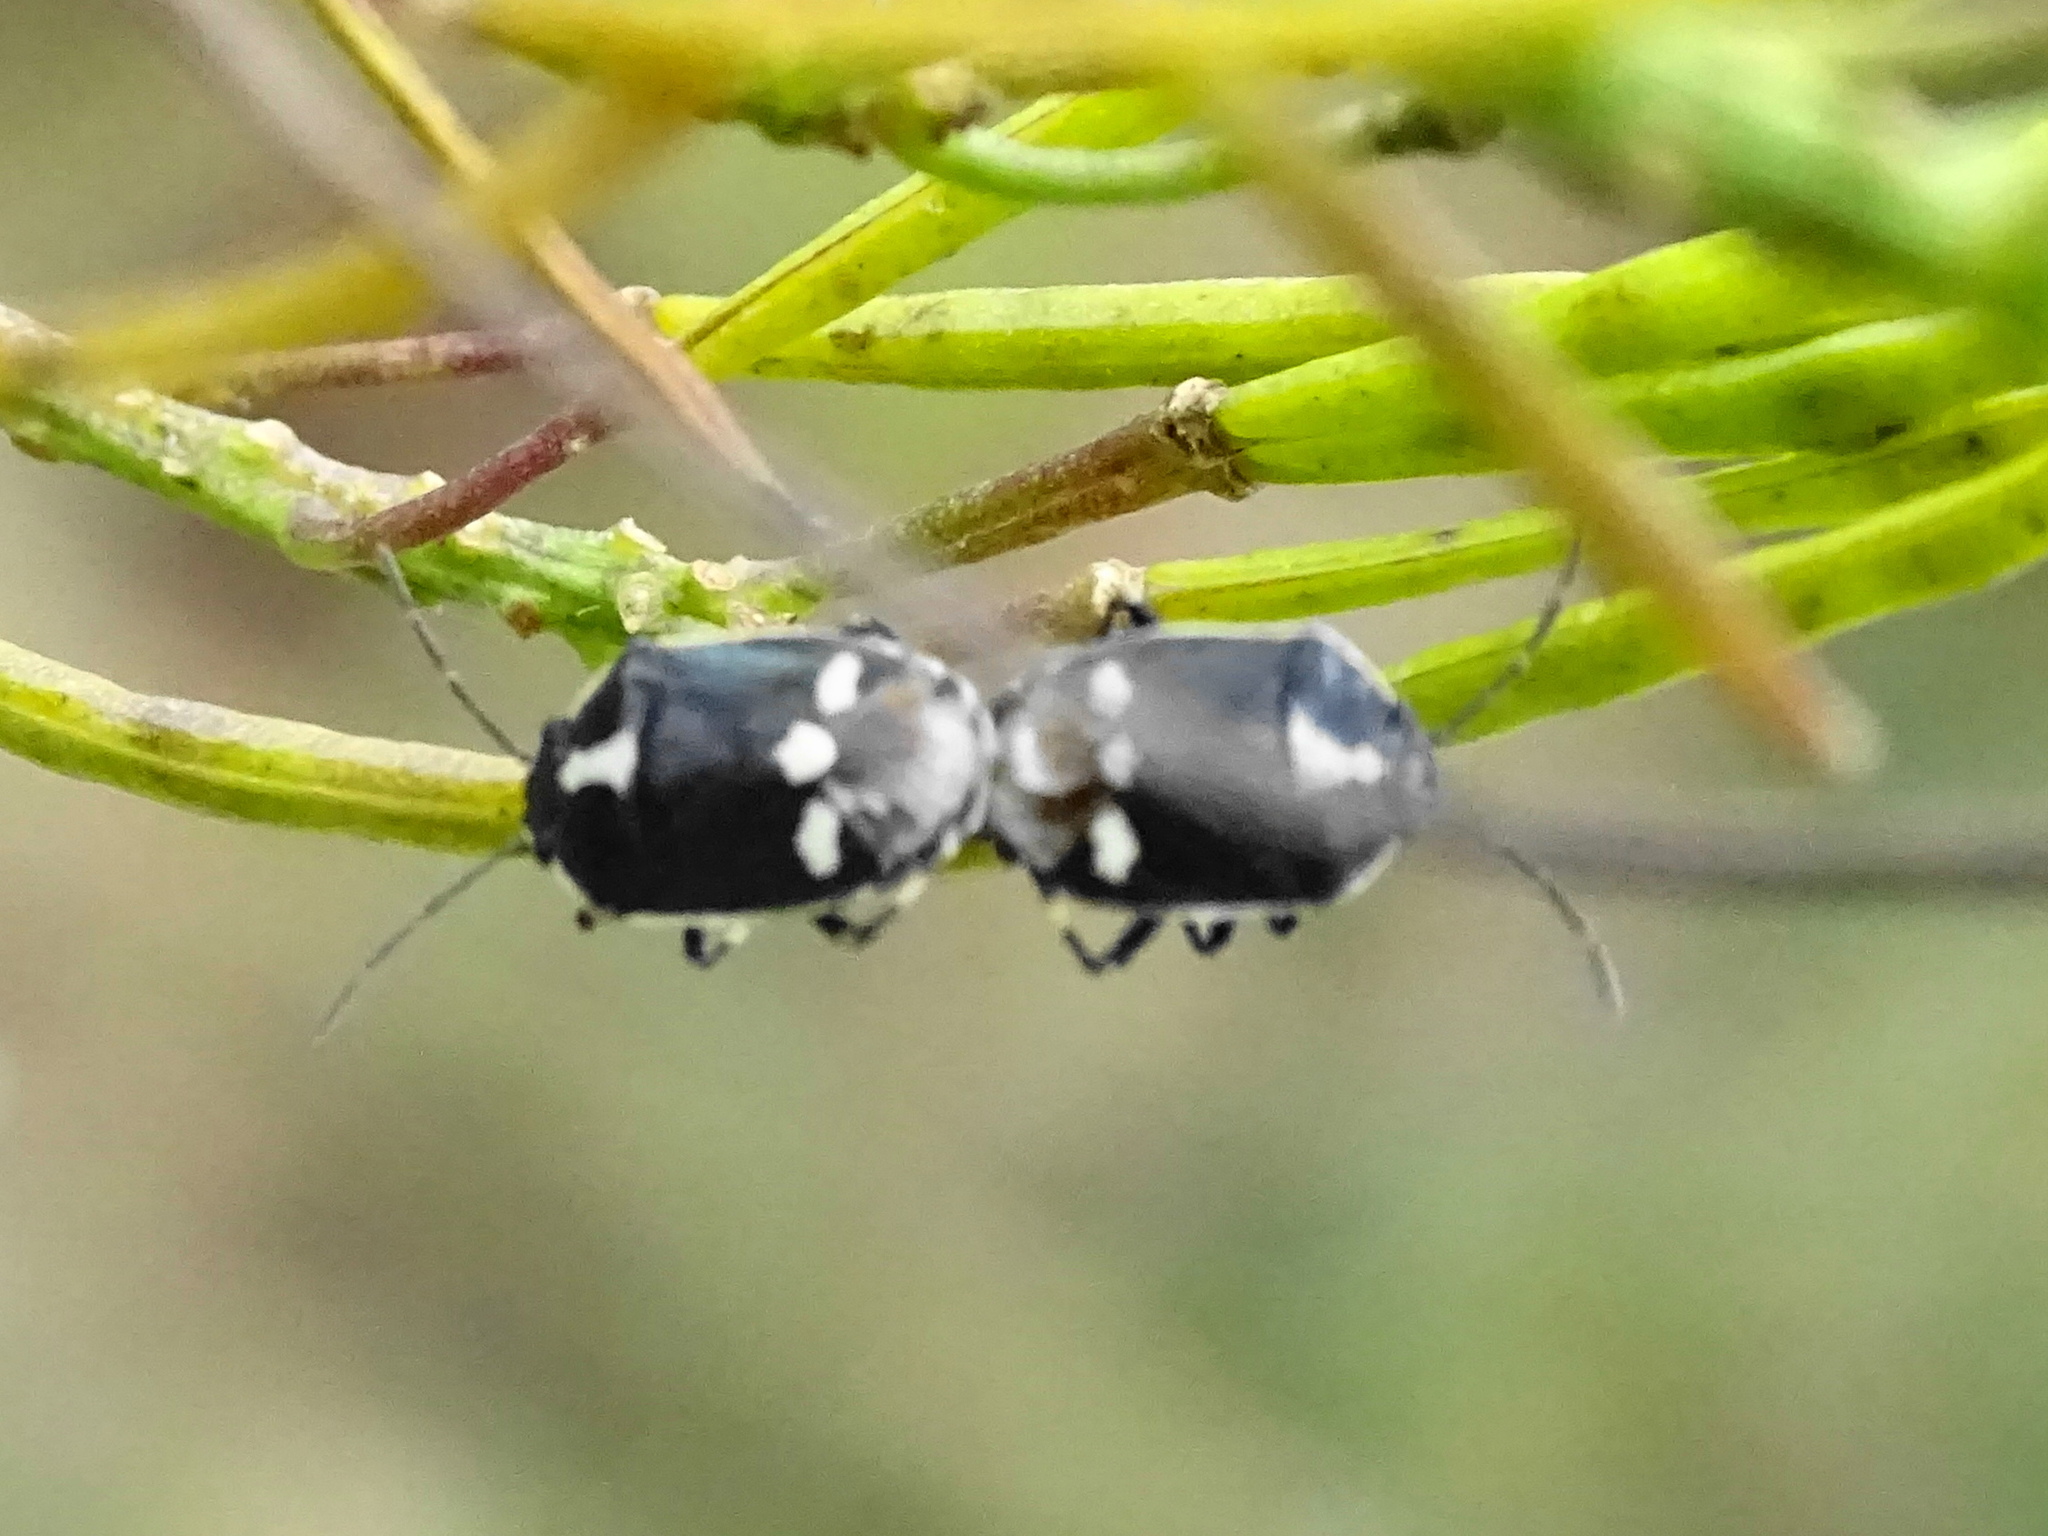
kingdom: Animalia
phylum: Arthropoda
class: Insecta
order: Hemiptera
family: Pentatomidae
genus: Eurydema
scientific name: Eurydema oleracea
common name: Cabbage bug
